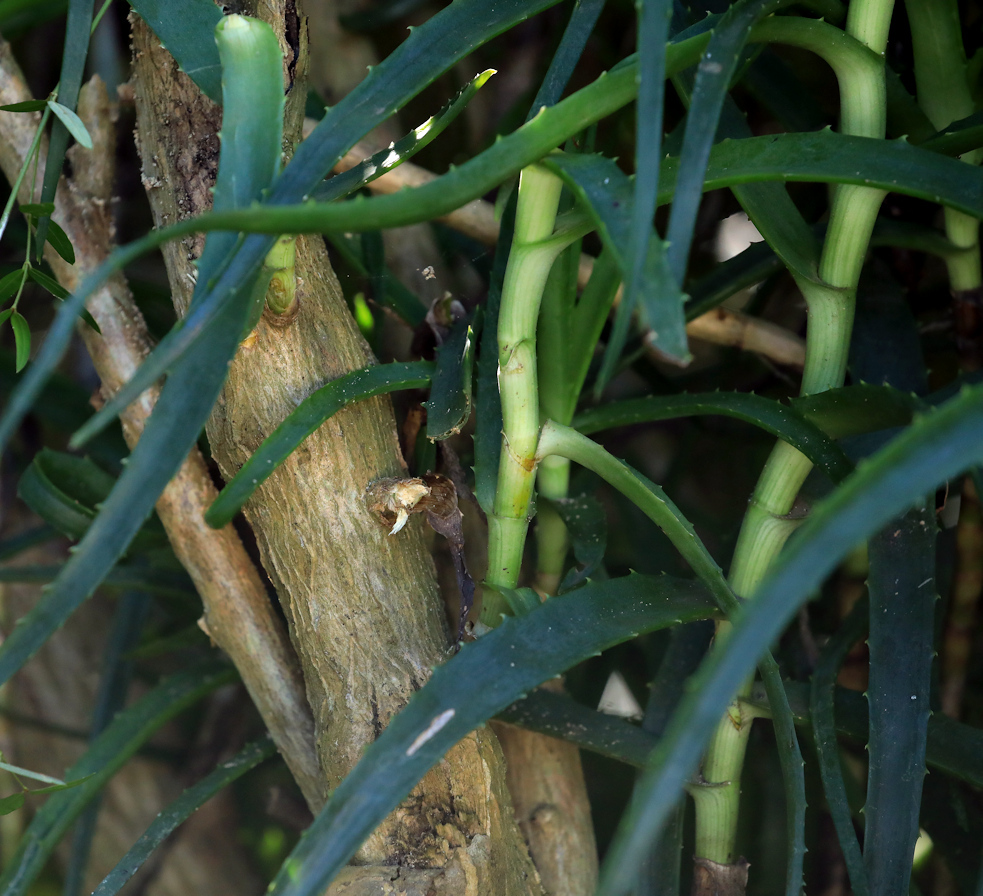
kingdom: Plantae
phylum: Tracheophyta
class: Liliopsida
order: Asparagales
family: Asphodelaceae
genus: Aloe
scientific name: Aloe arborescens
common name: Candelabra aloe
